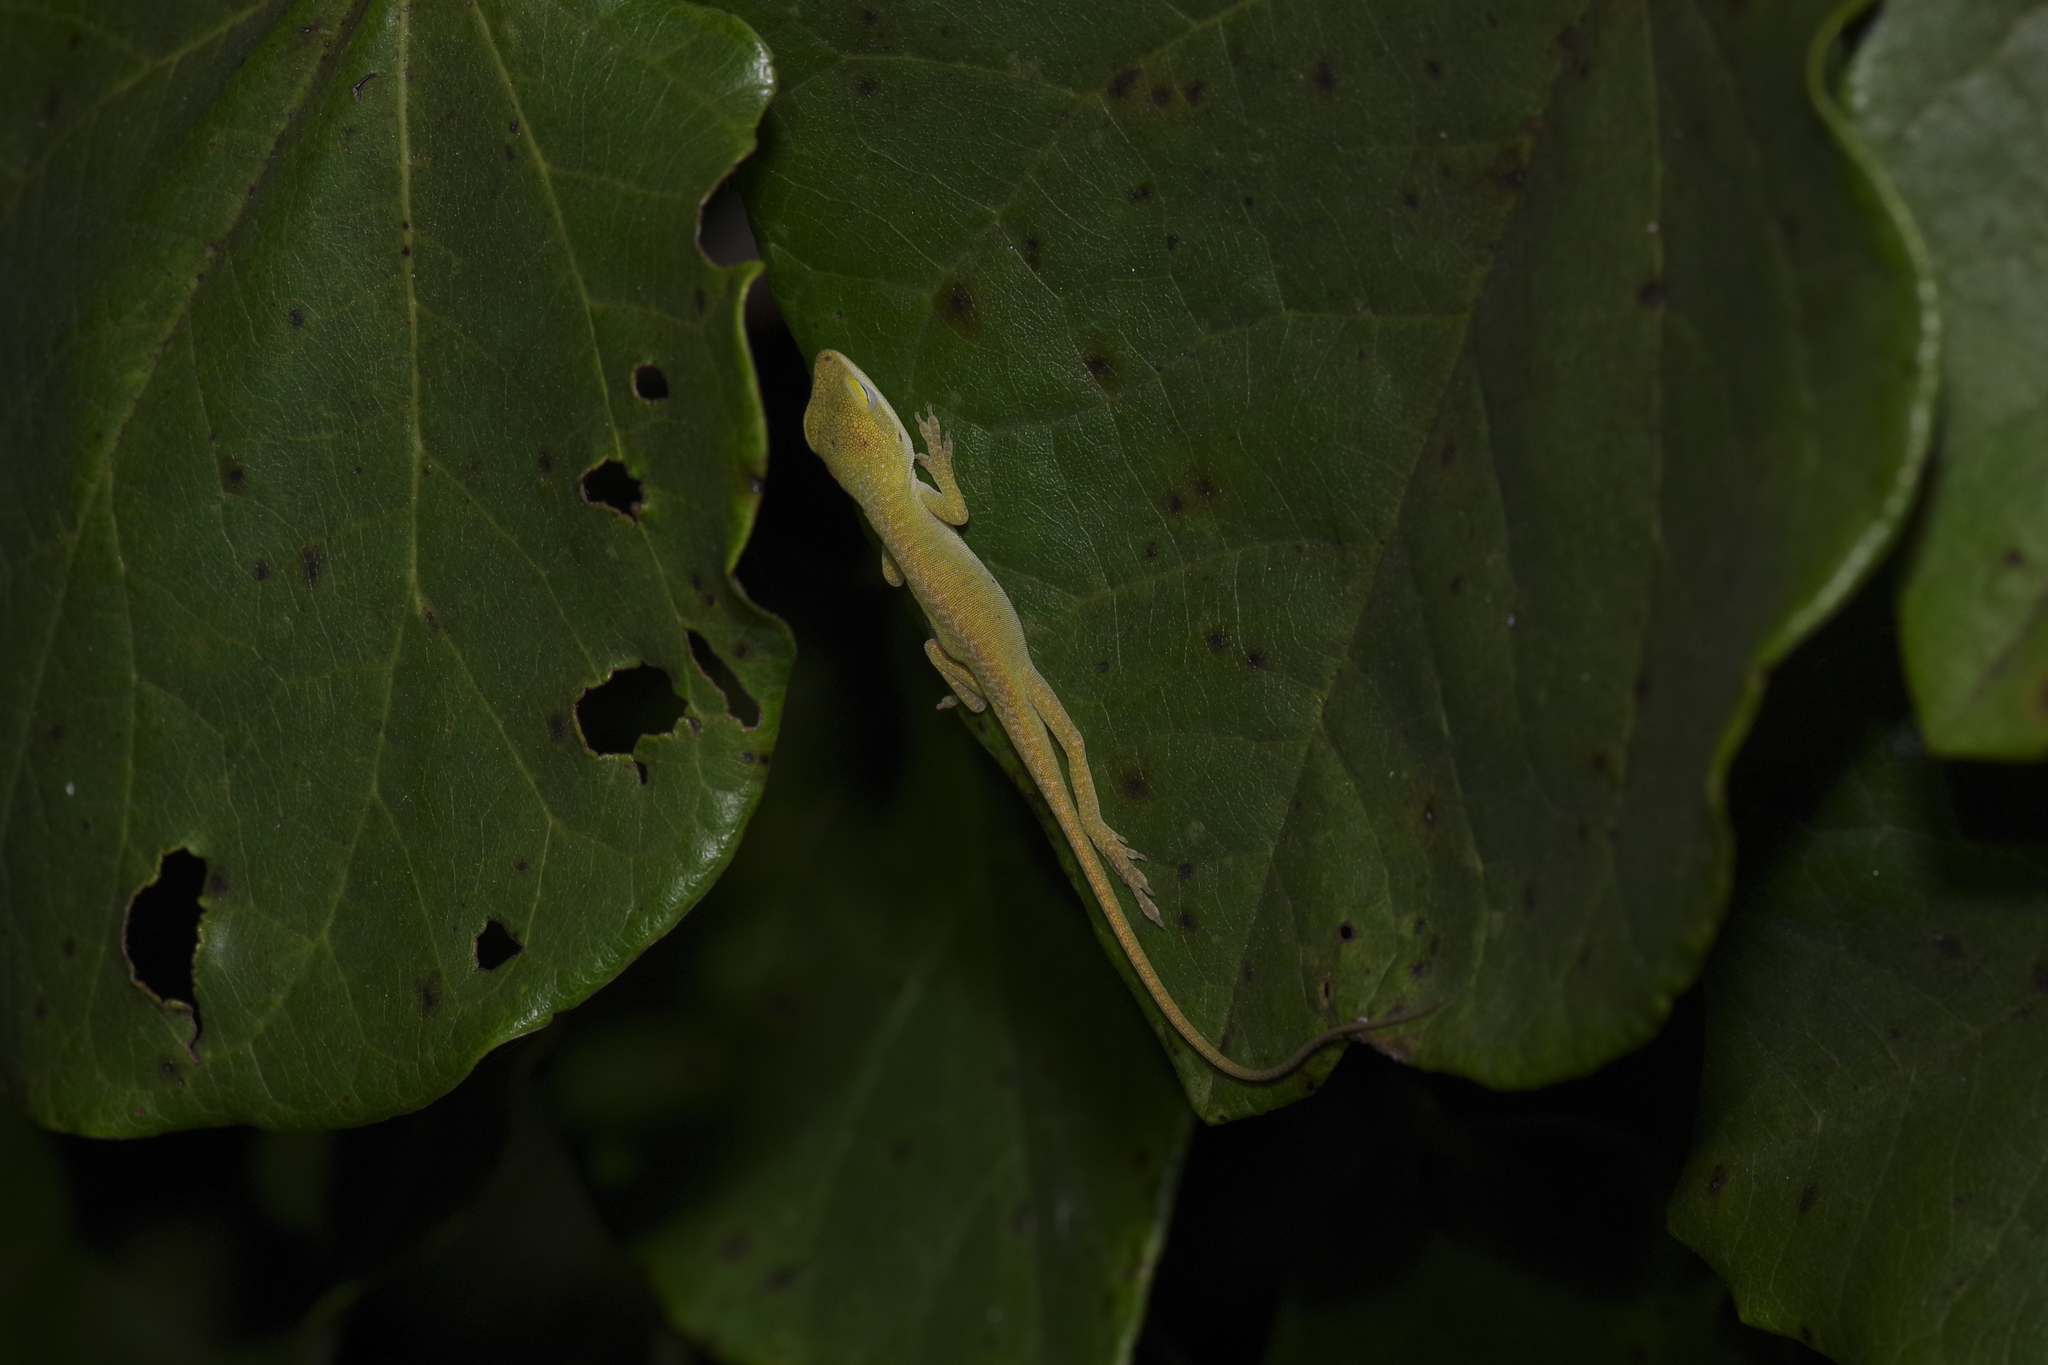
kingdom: Animalia
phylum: Chordata
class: Squamata
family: Dactyloidae
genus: Anolis
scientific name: Anolis carolinensis
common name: Green anole
